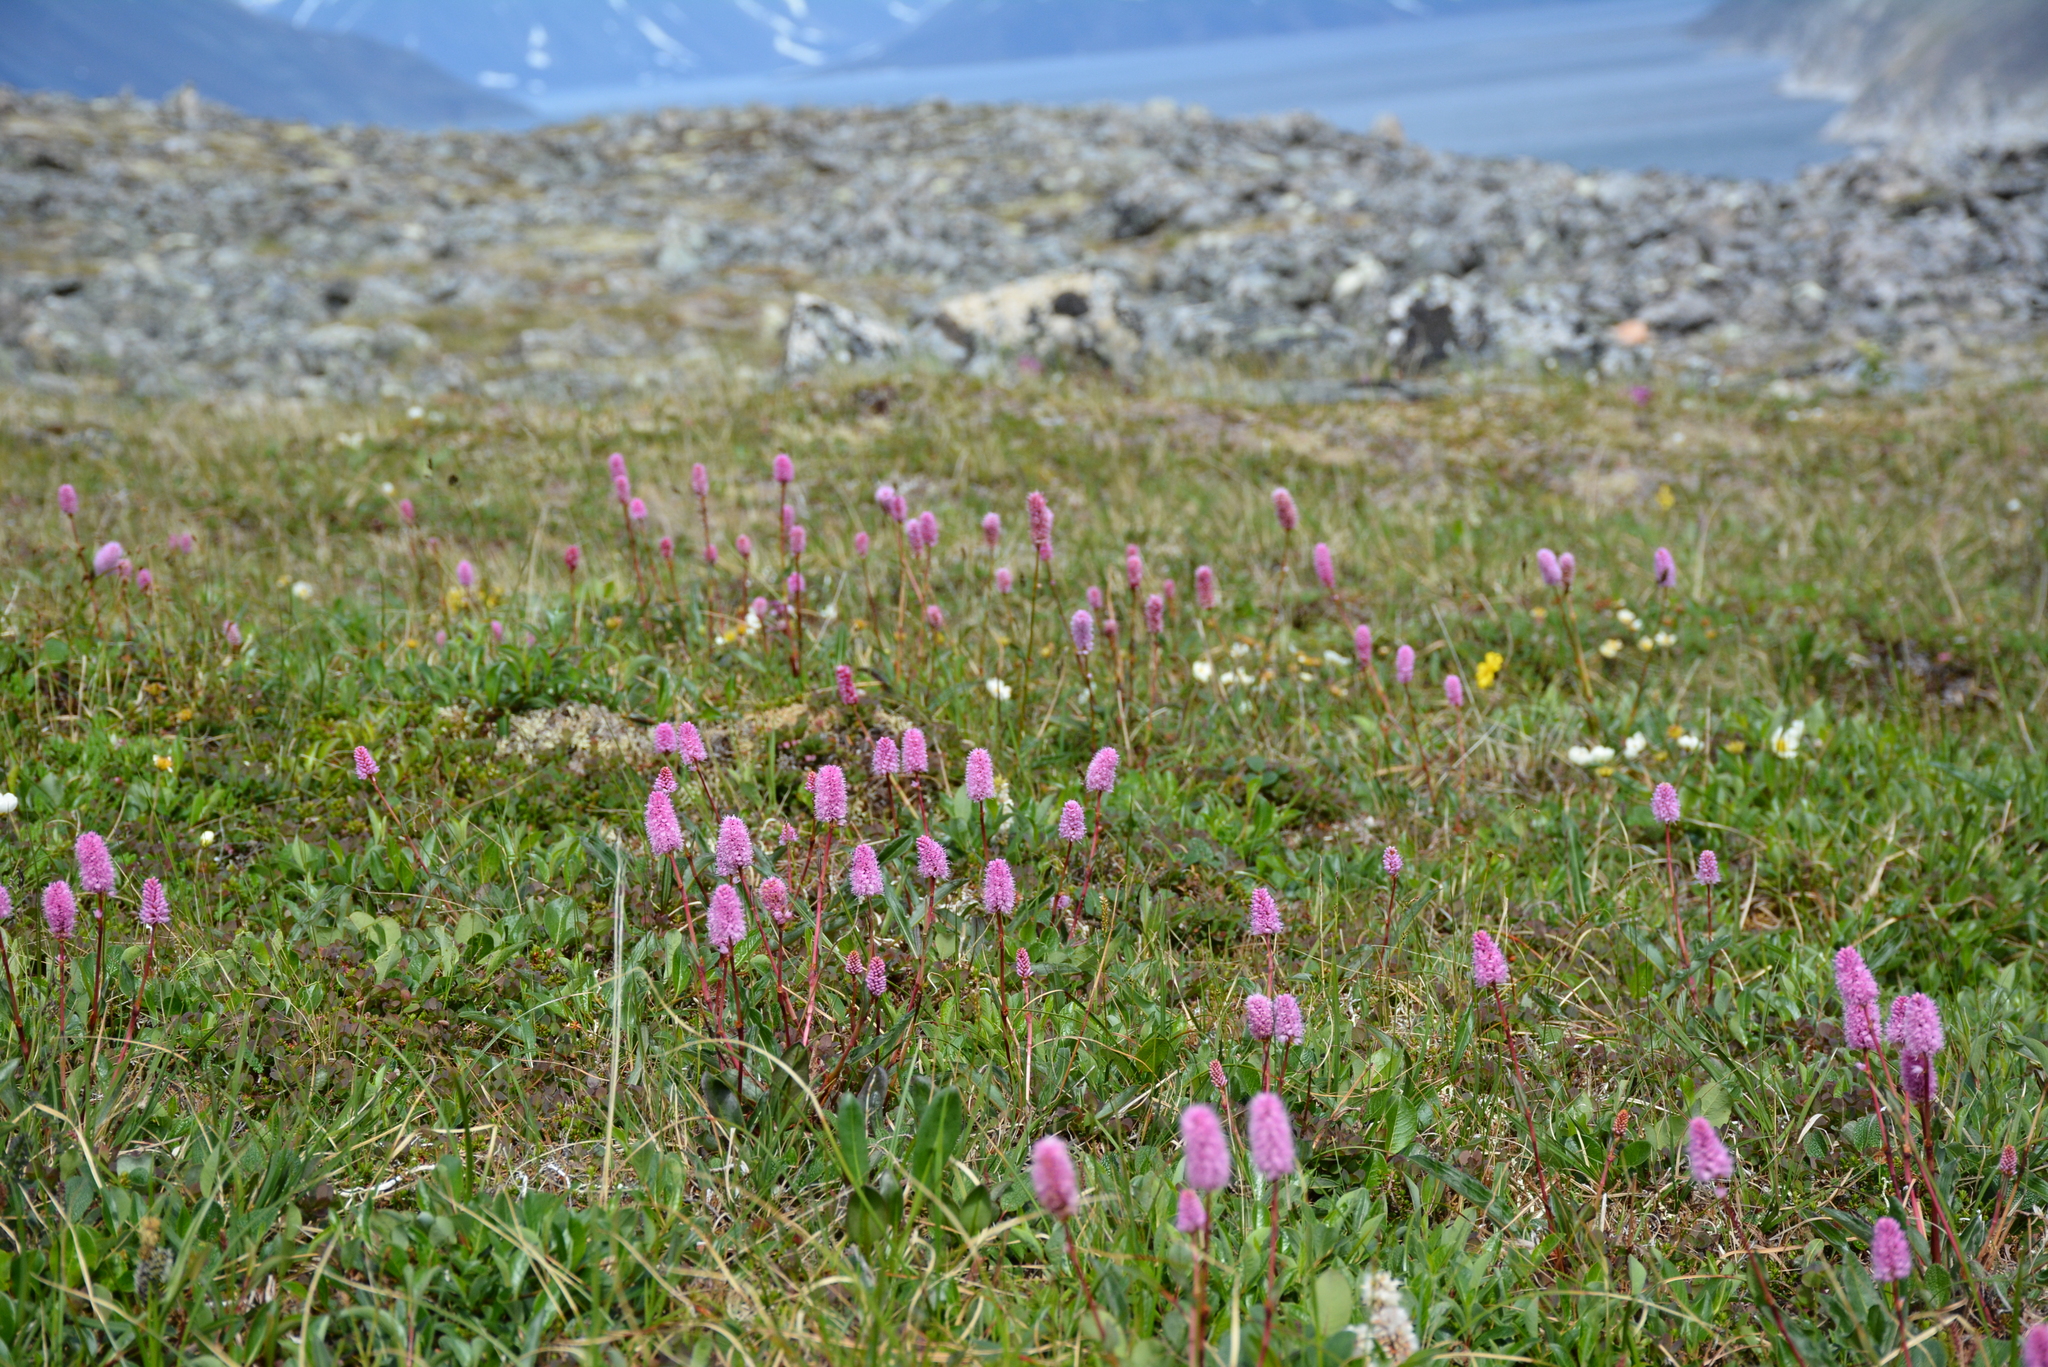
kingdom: Plantae
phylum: Tracheophyta
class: Magnoliopsida
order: Caryophyllales
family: Polygonaceae
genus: Bistorta
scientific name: Bistorta plumosa
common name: Meadow bistort
